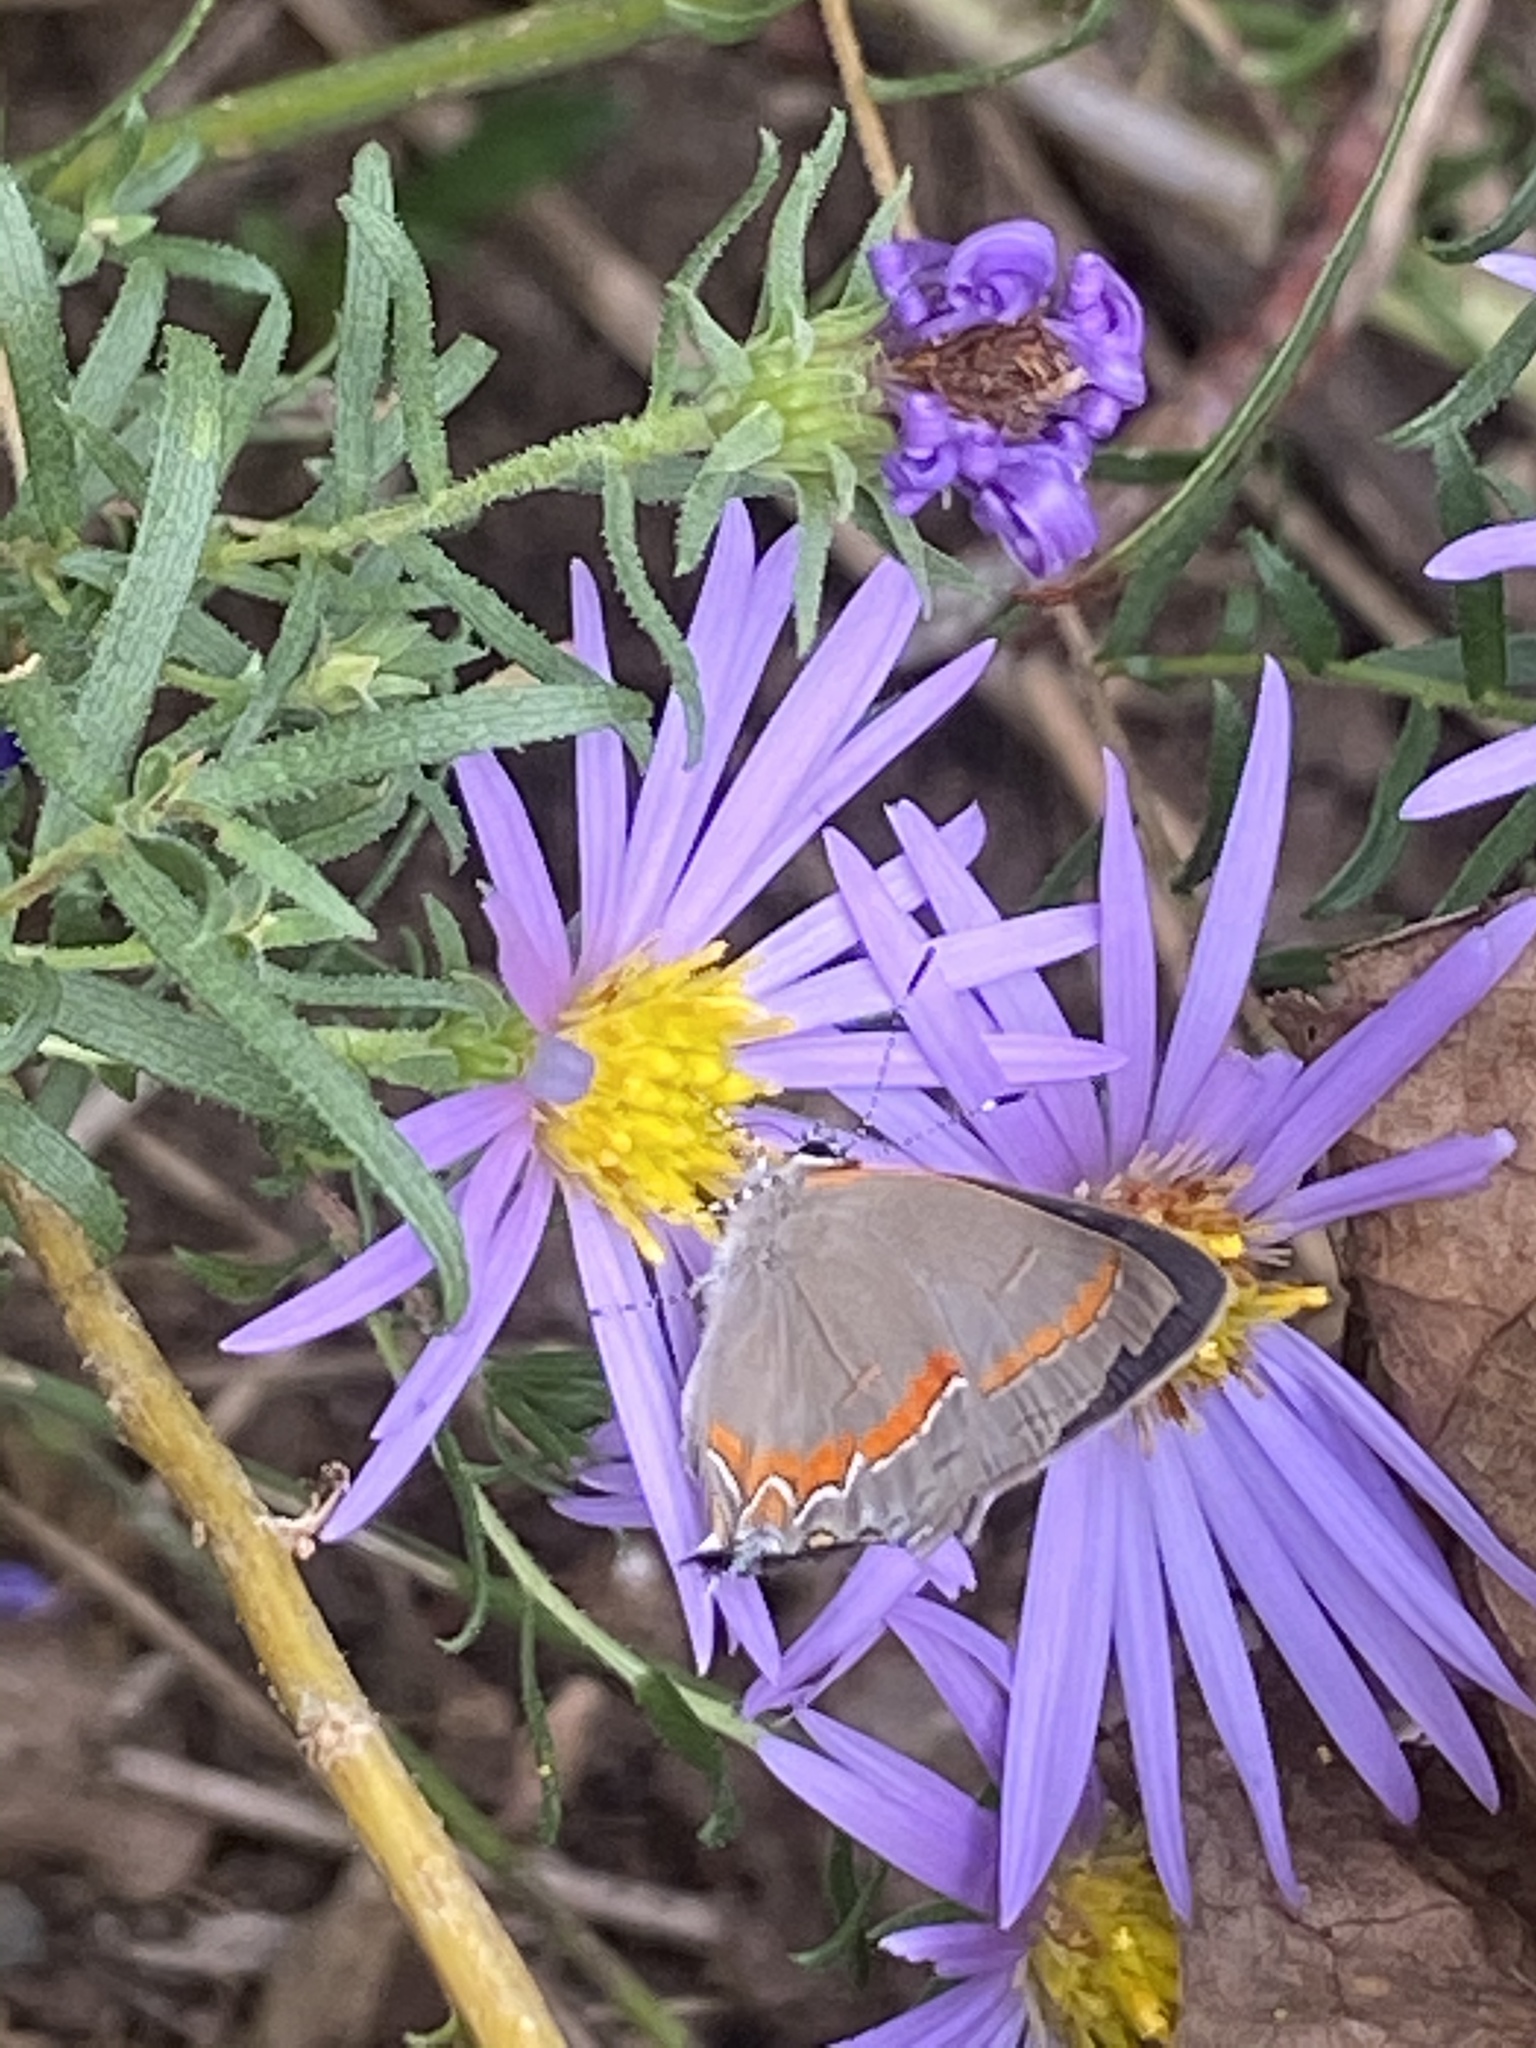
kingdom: Animalia
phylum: Arthropoda
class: Insecta
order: Lepidoptera
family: Lycaenidae
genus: Calycopis
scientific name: Calycopis cecrops
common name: Red-banded hairstreak
